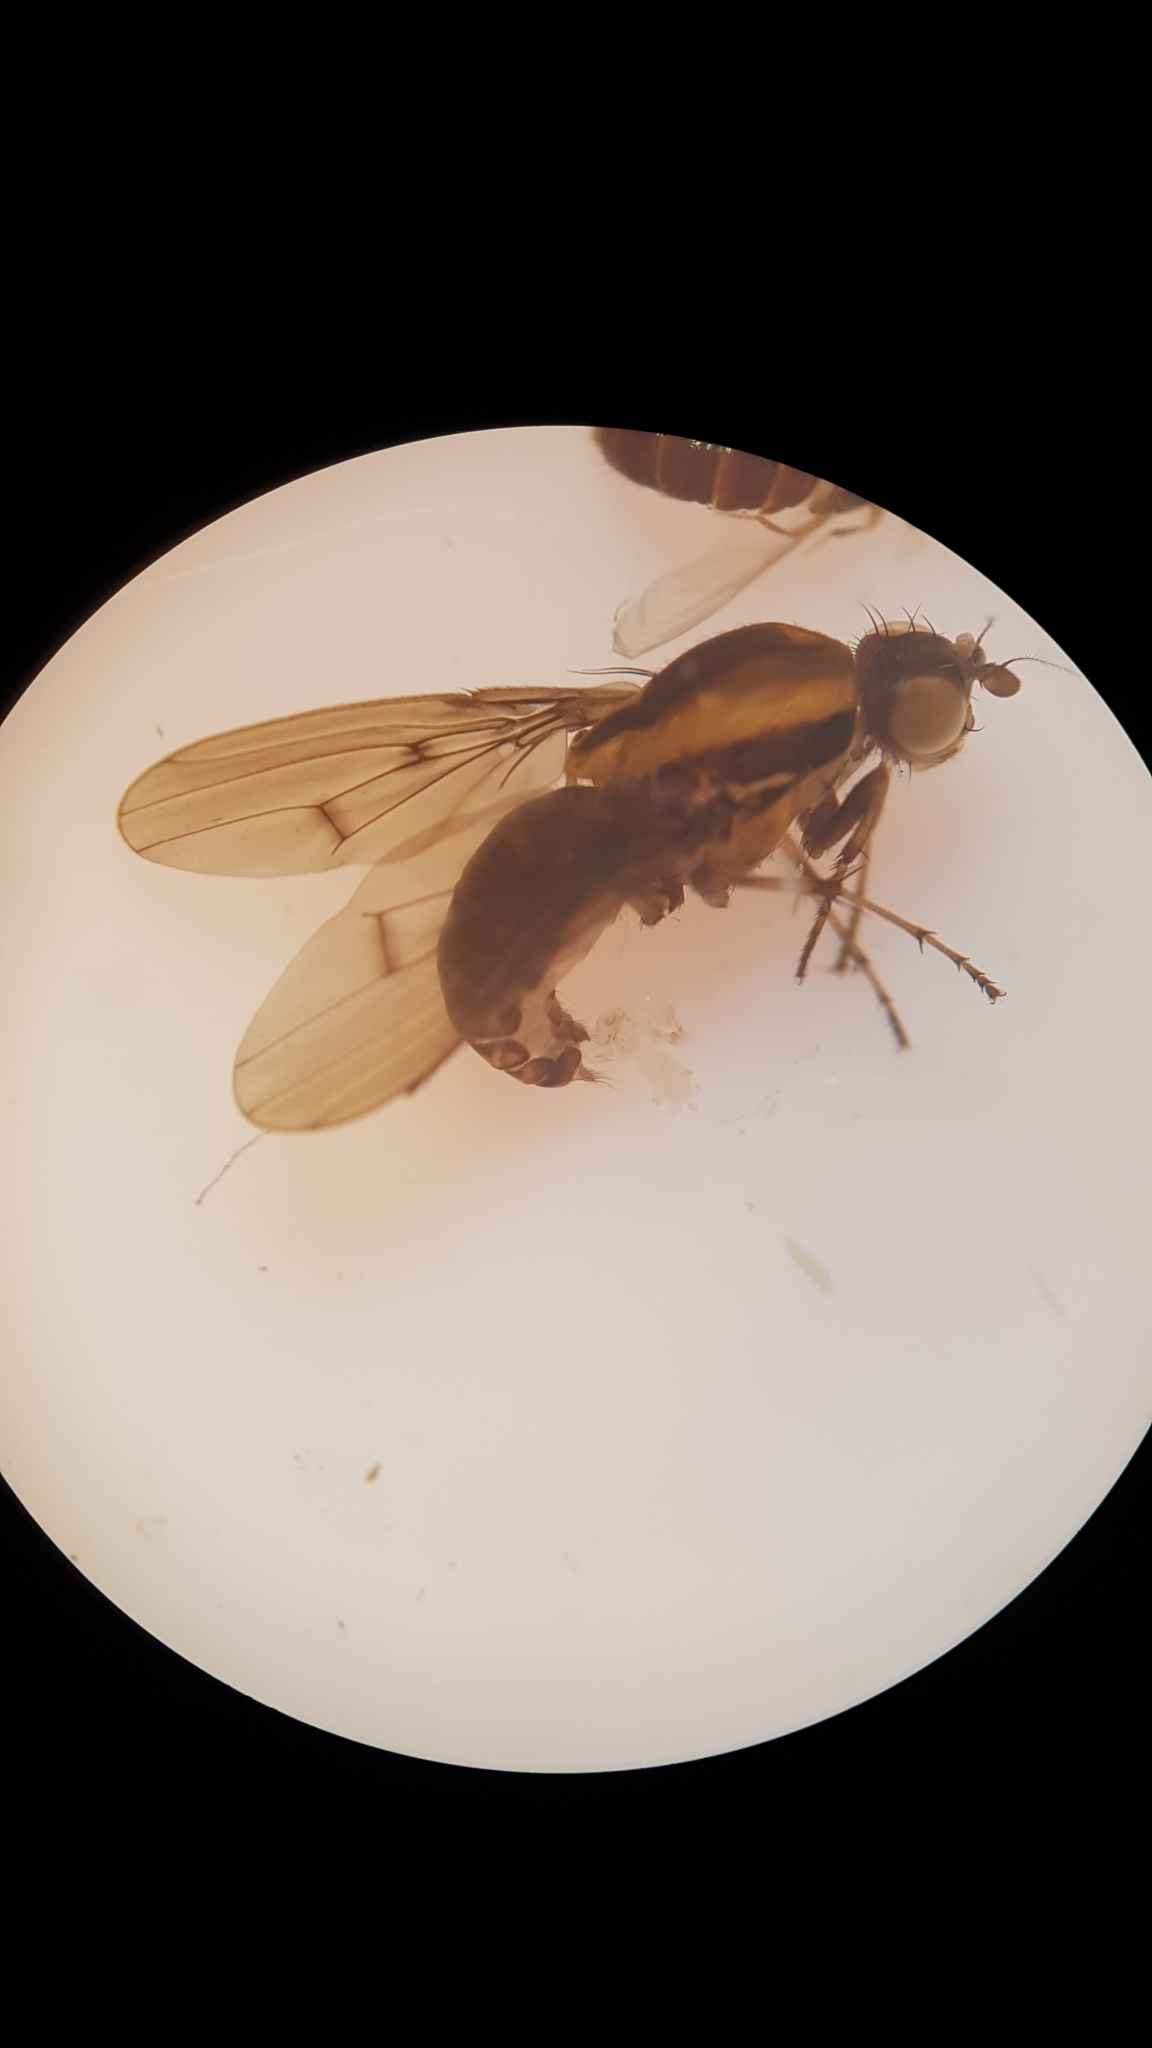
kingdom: Animalia
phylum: Arthropoda
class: Insecta
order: Diptera
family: Heleomyzidae
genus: Allophylopsis
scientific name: Allophylopsis scutellata
